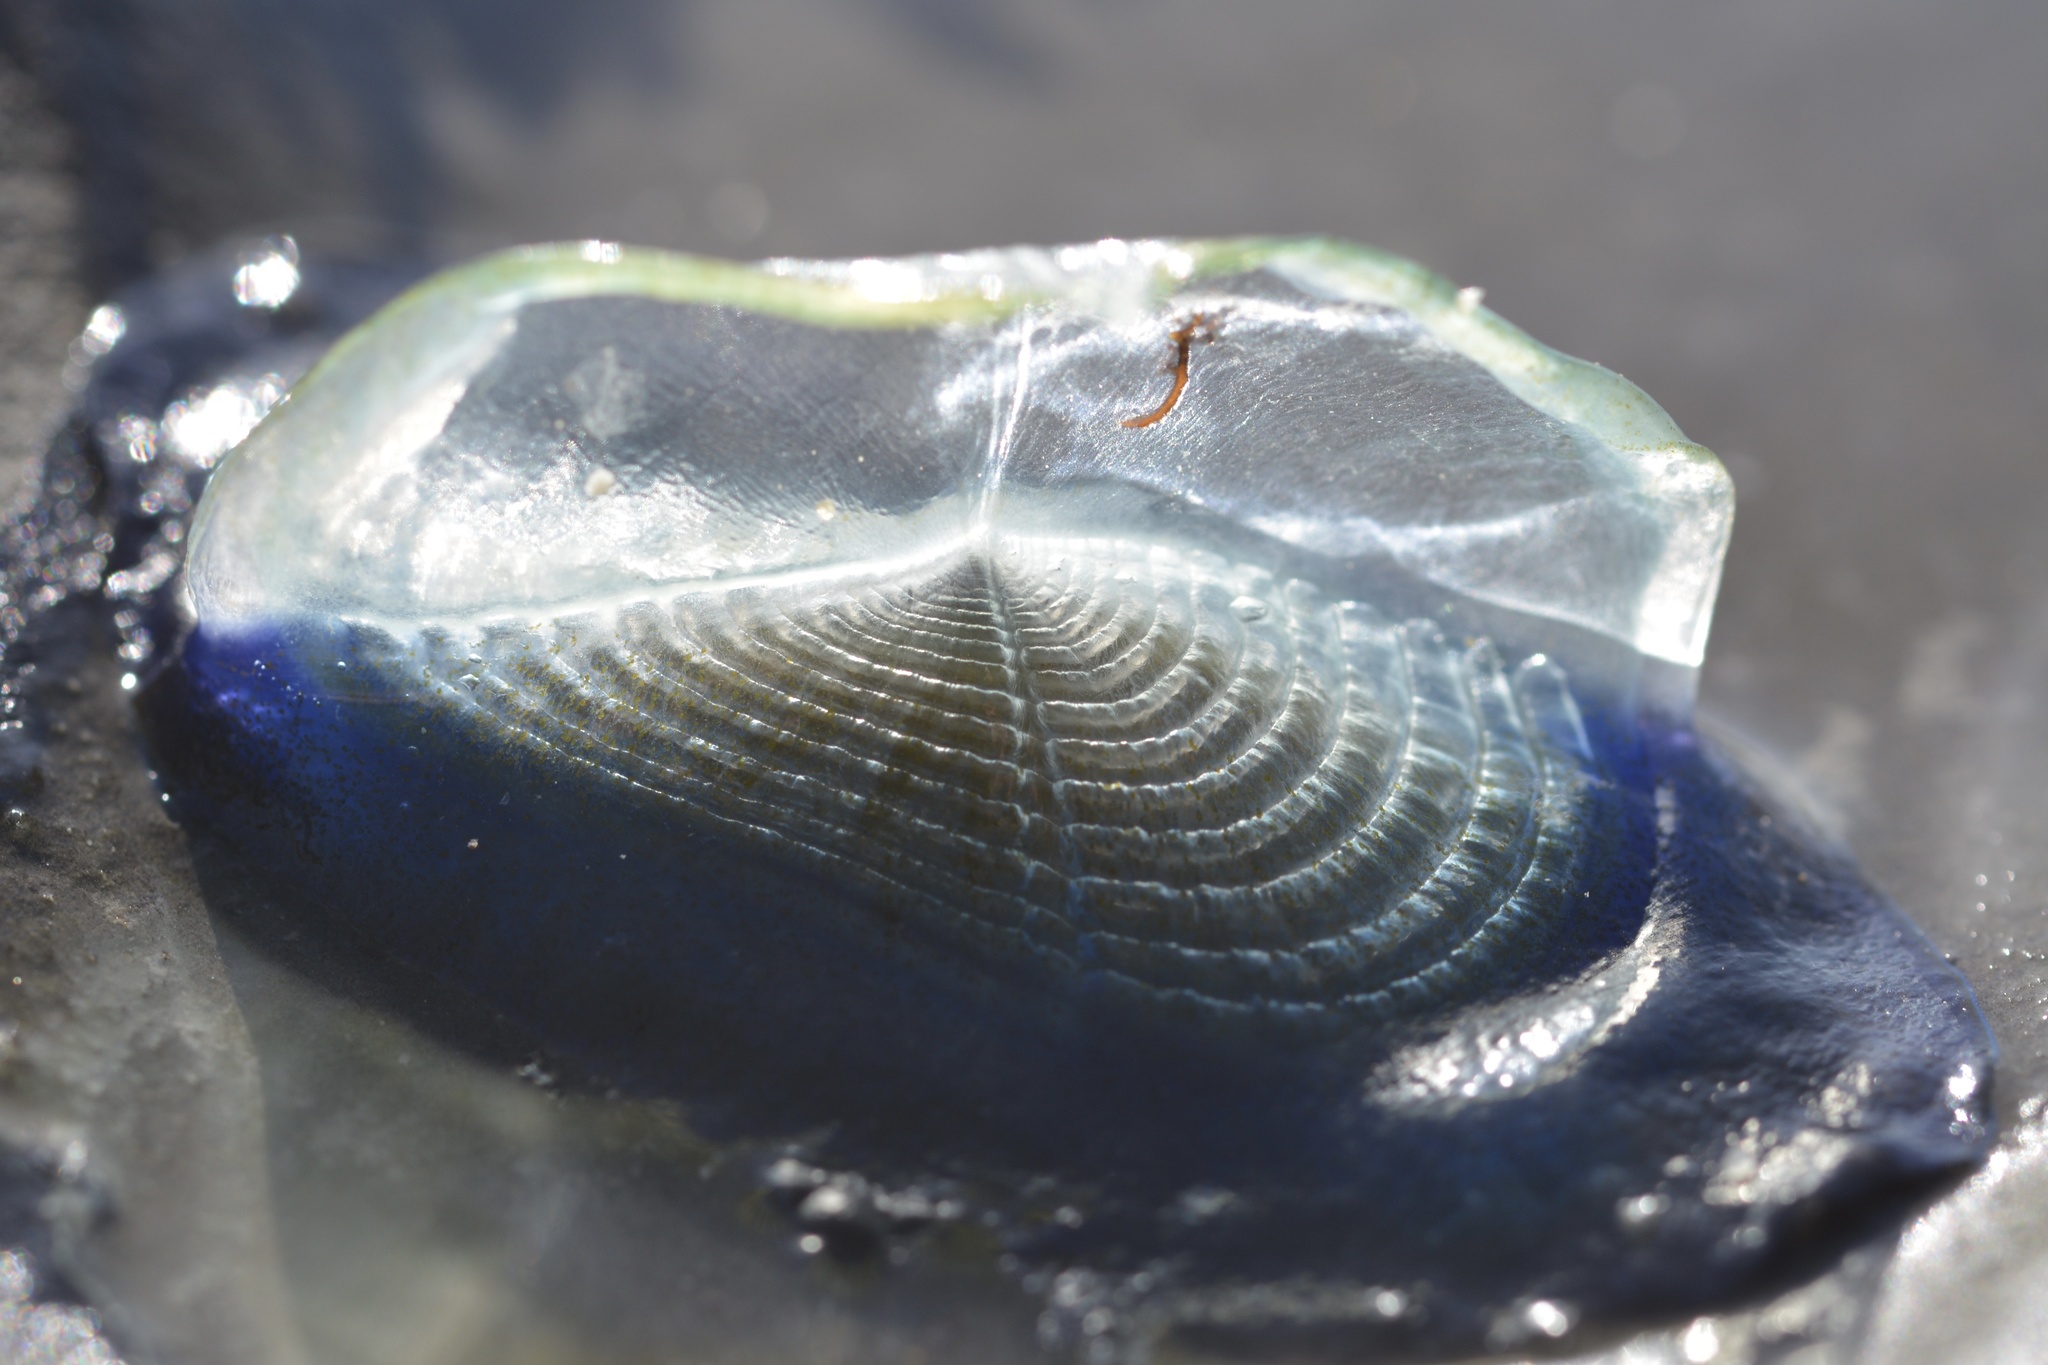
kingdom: Animalia
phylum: Cnidaria
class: Hydrozoa
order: Anthoathecata
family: Porpitidae
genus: Velella
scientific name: Velella velella
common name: By-the-wind-sailor
